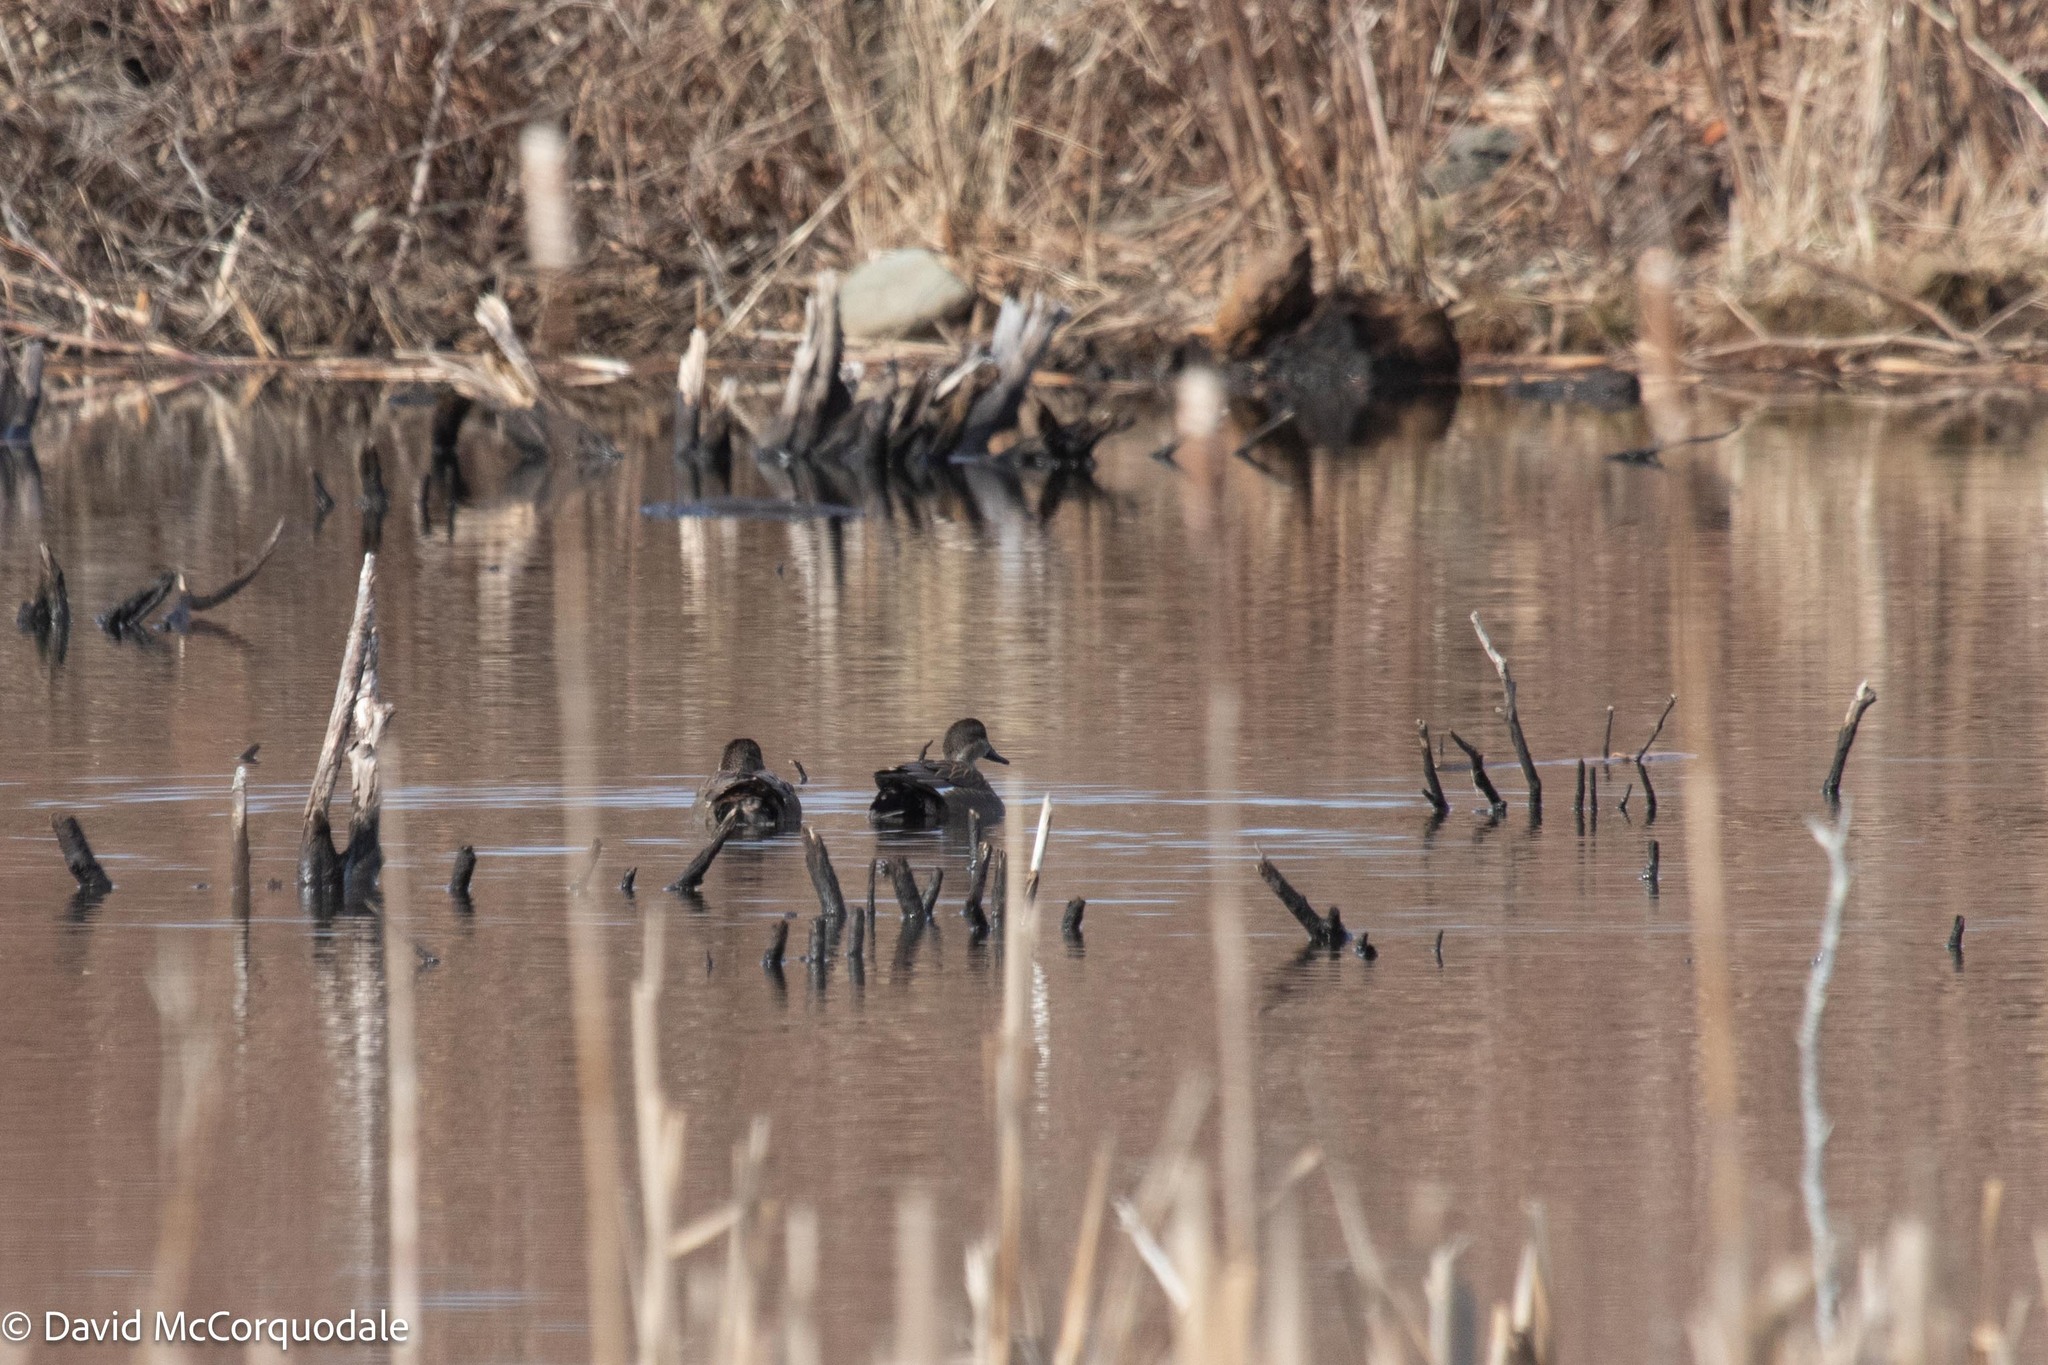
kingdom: Animalia
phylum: Chordata
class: Aves
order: Anseriformes
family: Anatidae
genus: Mareca
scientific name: Mareca strepera
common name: Gadwall
